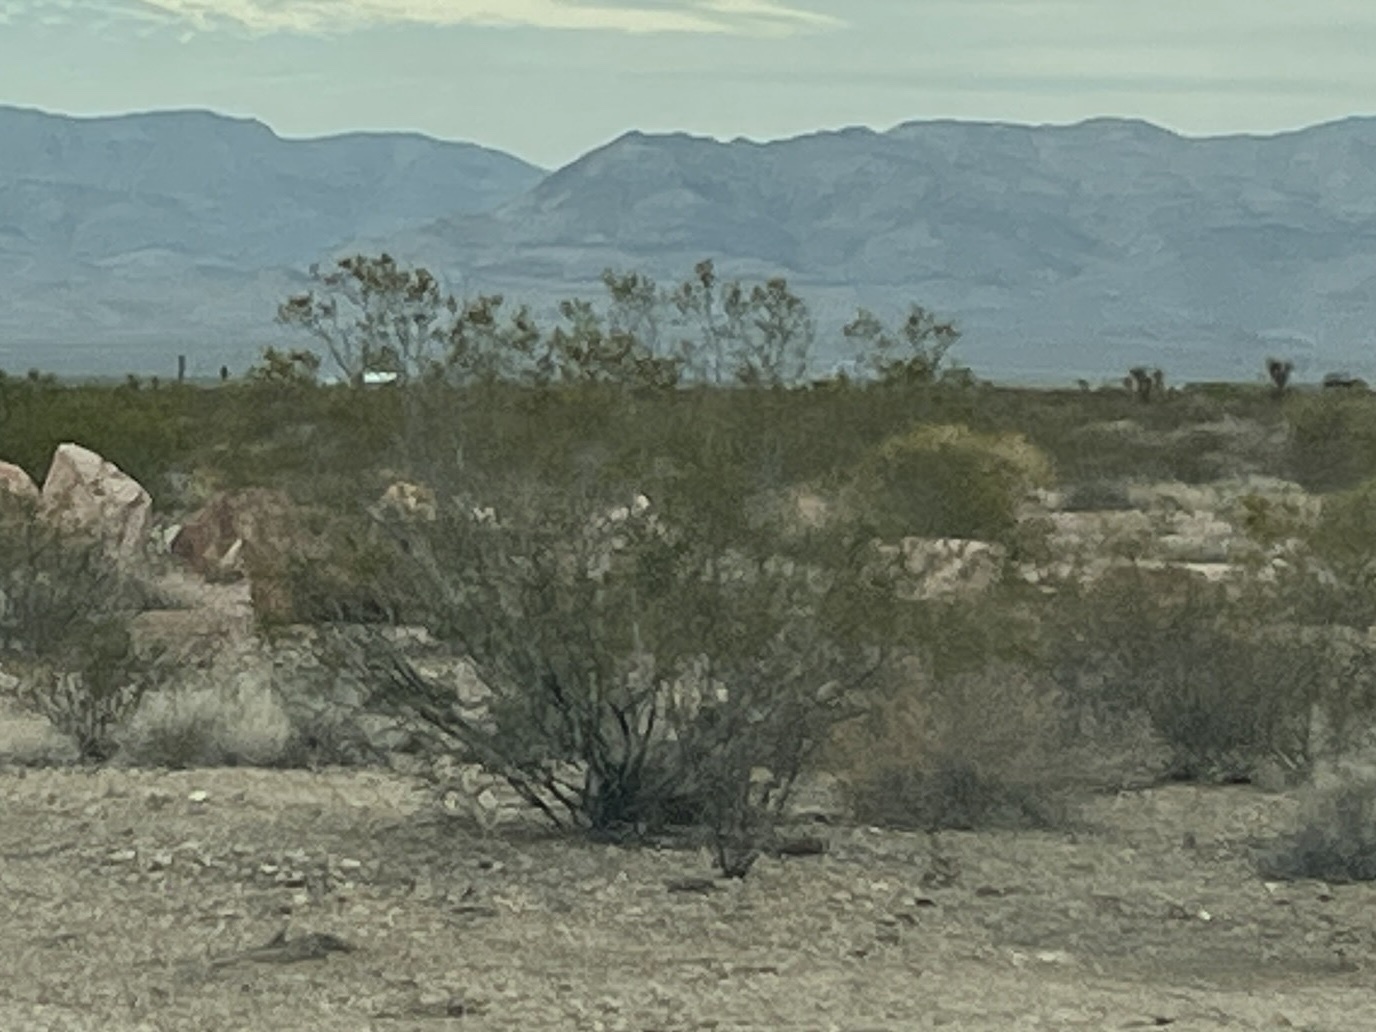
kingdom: Plantae
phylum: Tracheophyta
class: Magnoliopsida
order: Zygophyllales
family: Zygophyllaceae
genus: Larrea
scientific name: Larrea tridentata
